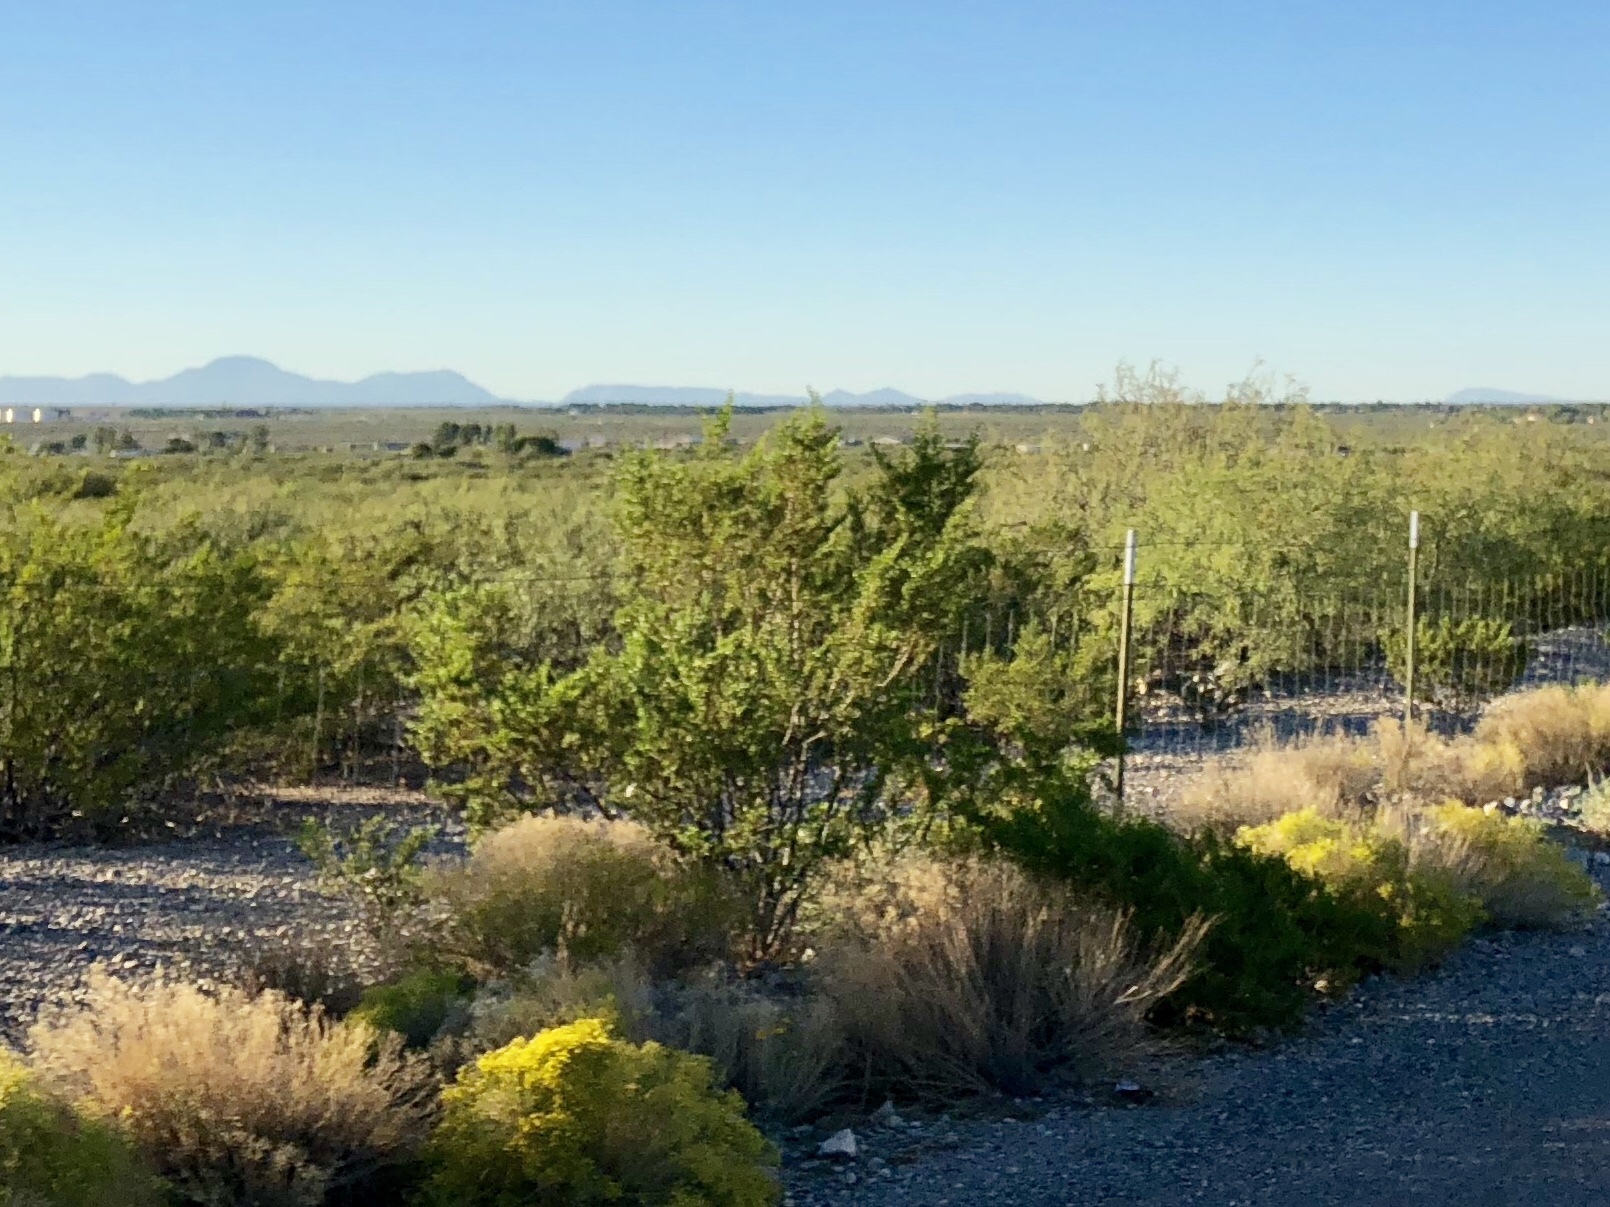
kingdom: Plantae
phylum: Tracheophyta
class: Magnoliopsida
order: Zygophyllales
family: Zygophyllaceae
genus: Larrea
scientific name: Larrea tridentata
